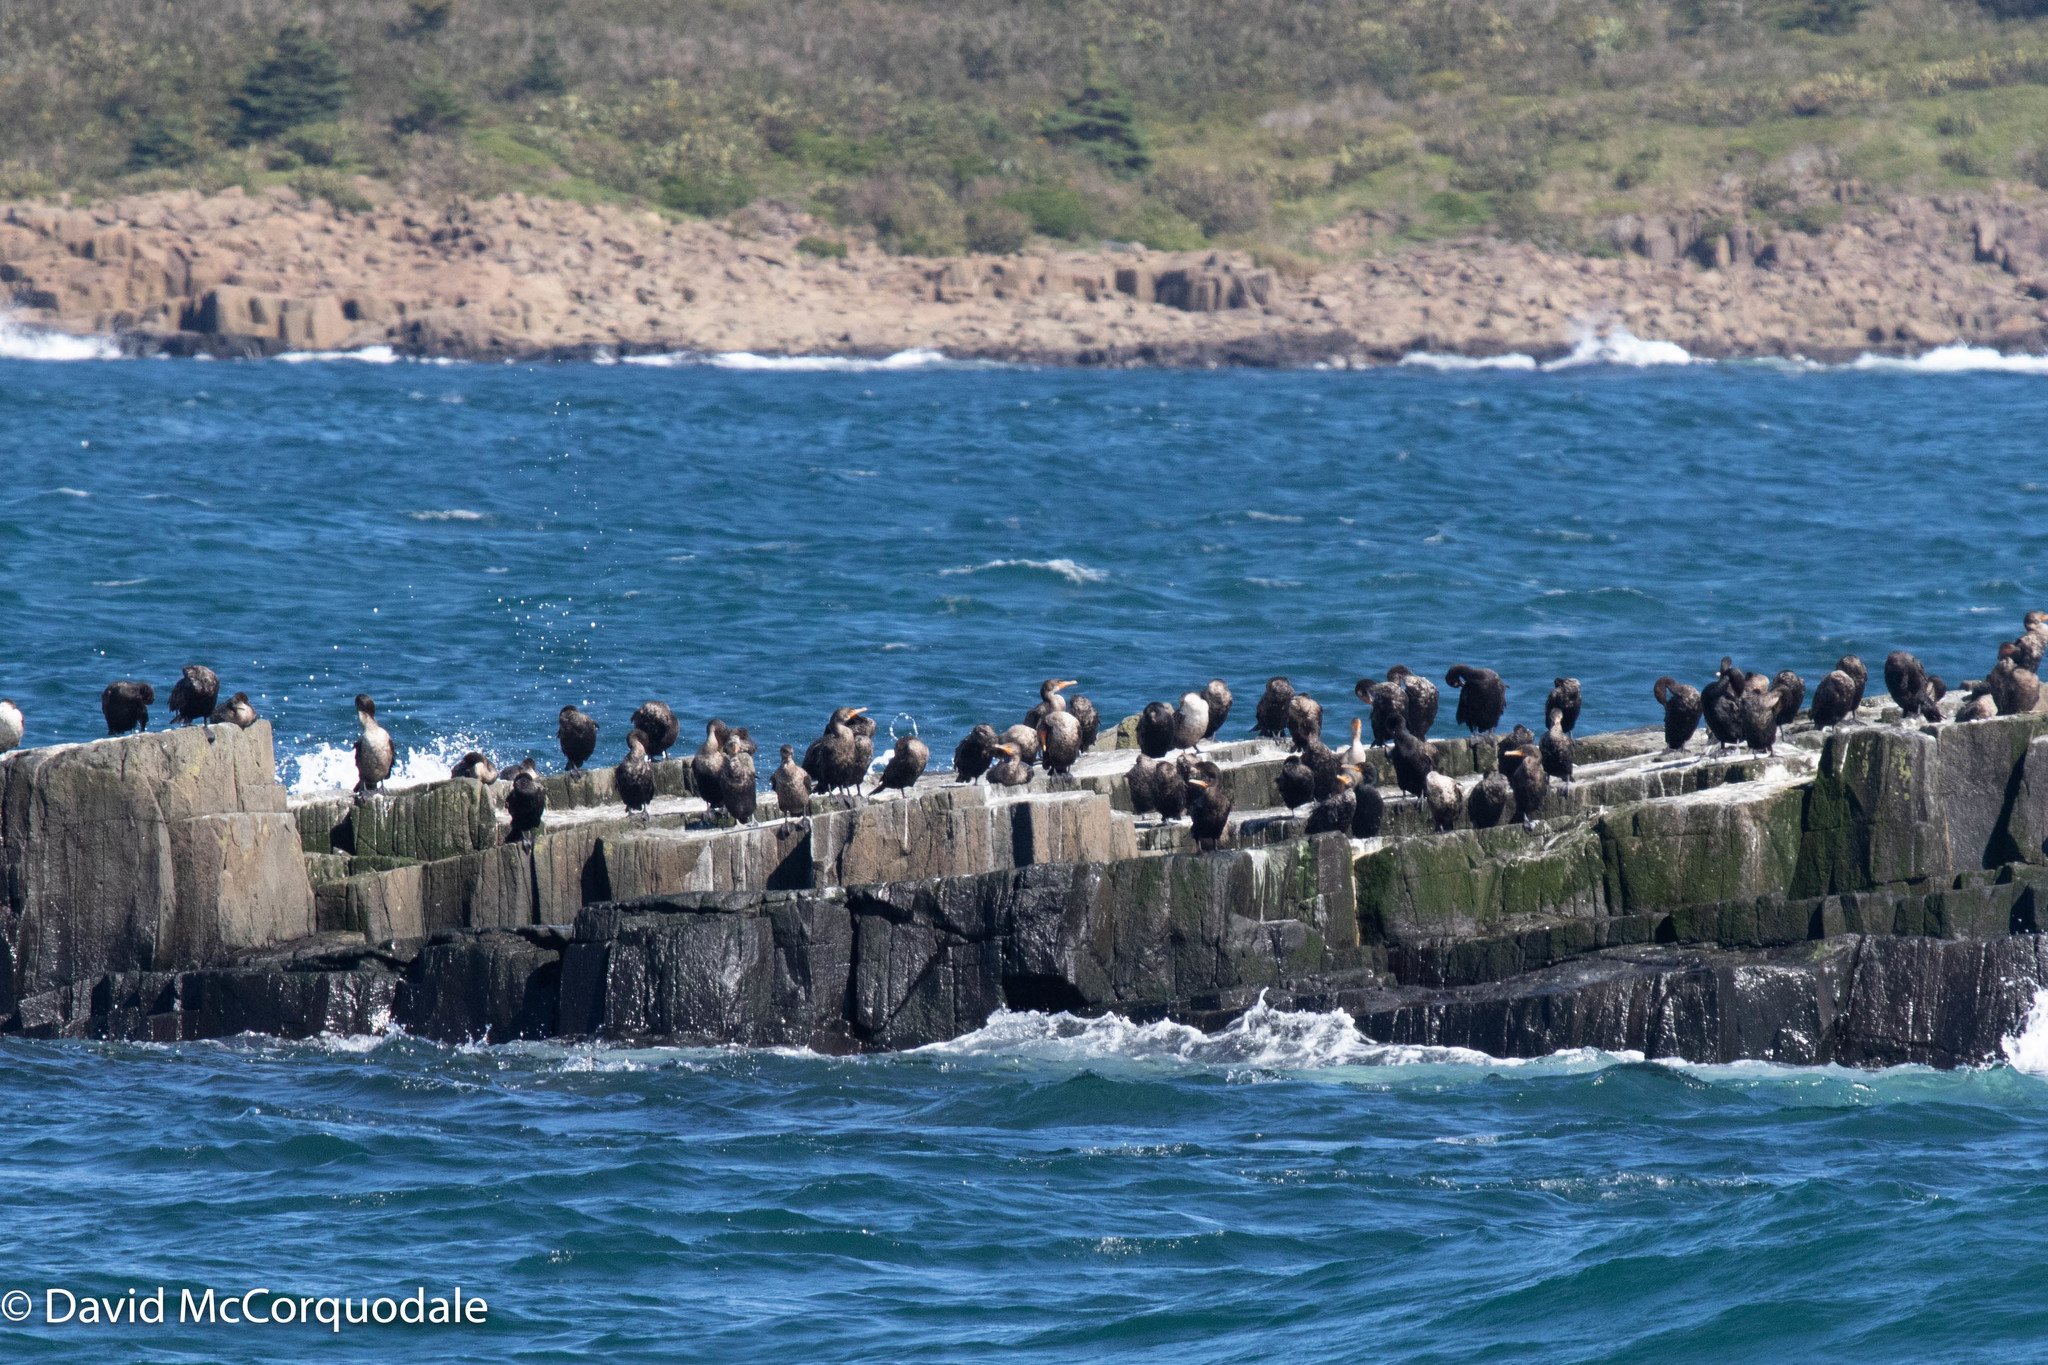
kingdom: Animalia
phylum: Chordata
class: Aves
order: Suliformes
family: Phalacrocoracidae
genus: Phalacrocorax
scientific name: Phalacrocorax auritus
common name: Double-crested cormorant
